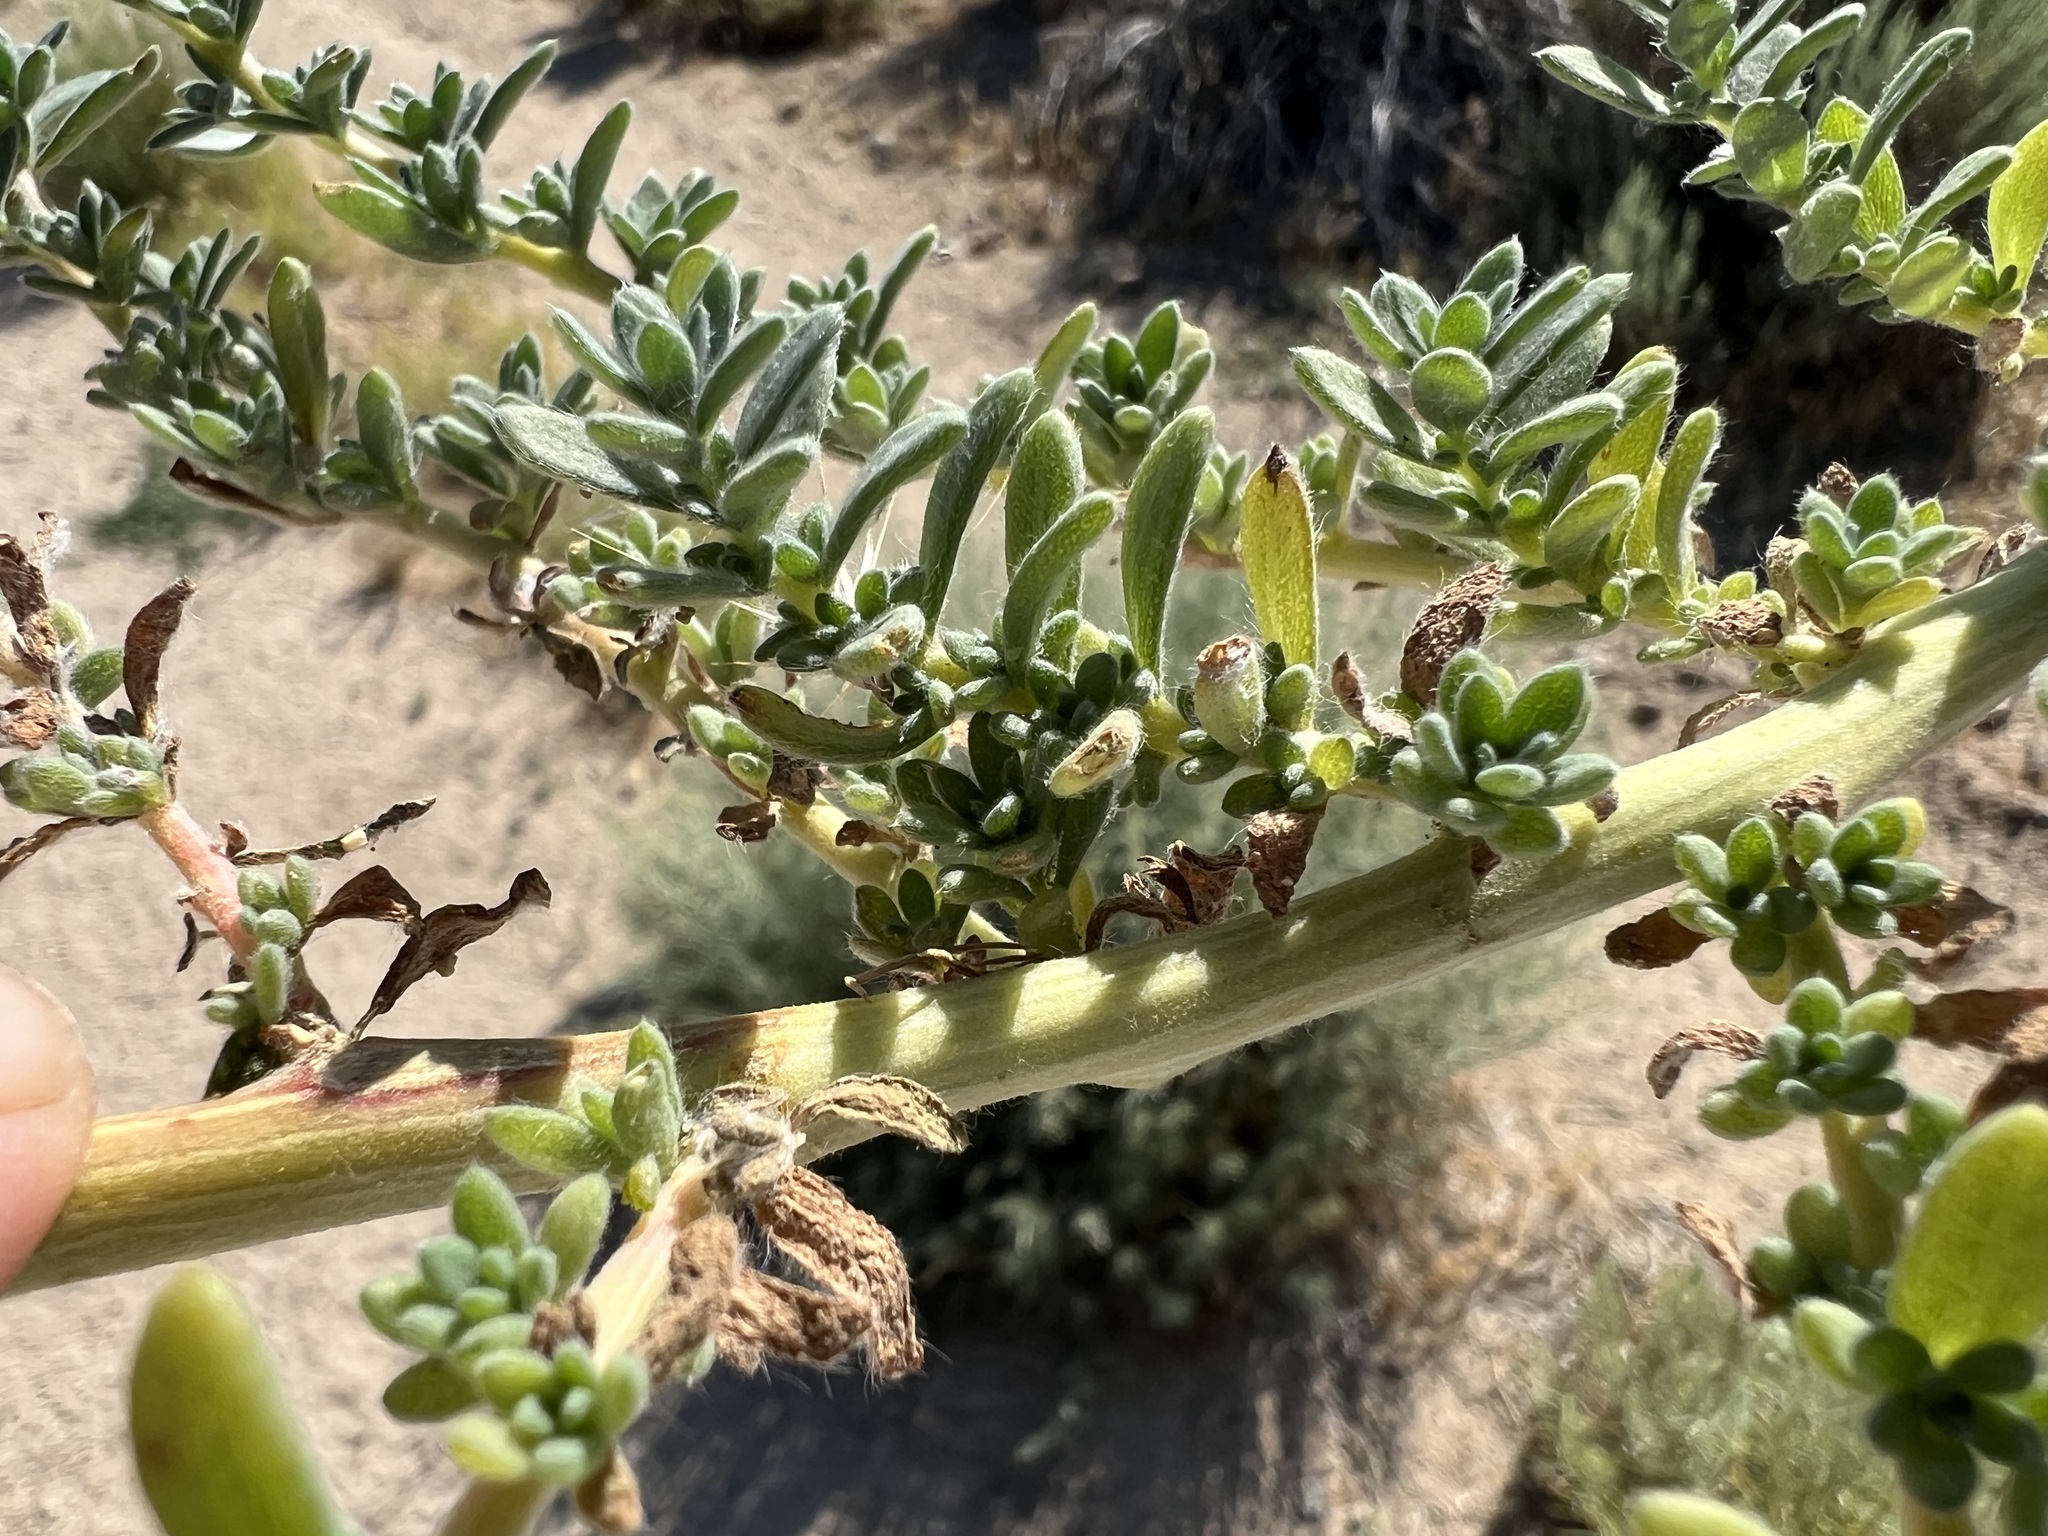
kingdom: Plantae
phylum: Tracheophyta
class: Magnoliopsida
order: Caryophyllales
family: Amaranthaceae
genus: Bassia
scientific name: Bassia hyssopifolia
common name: Fivehorn smotherweed
